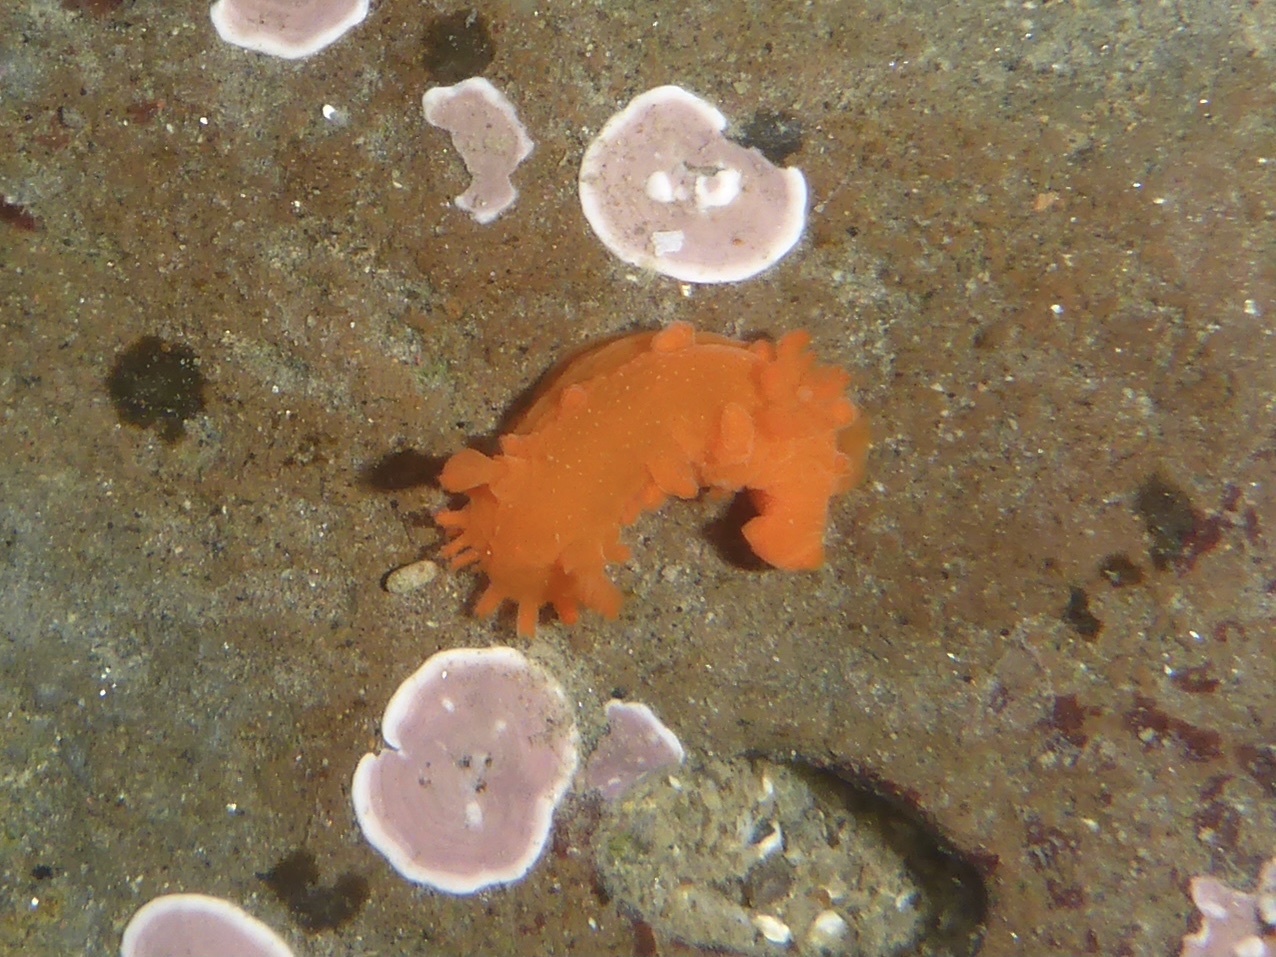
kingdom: Animalia
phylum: Mollusca
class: Gastropoda
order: Nudibranchia
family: Polyceridae
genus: Triopha
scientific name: Triopha maculata
